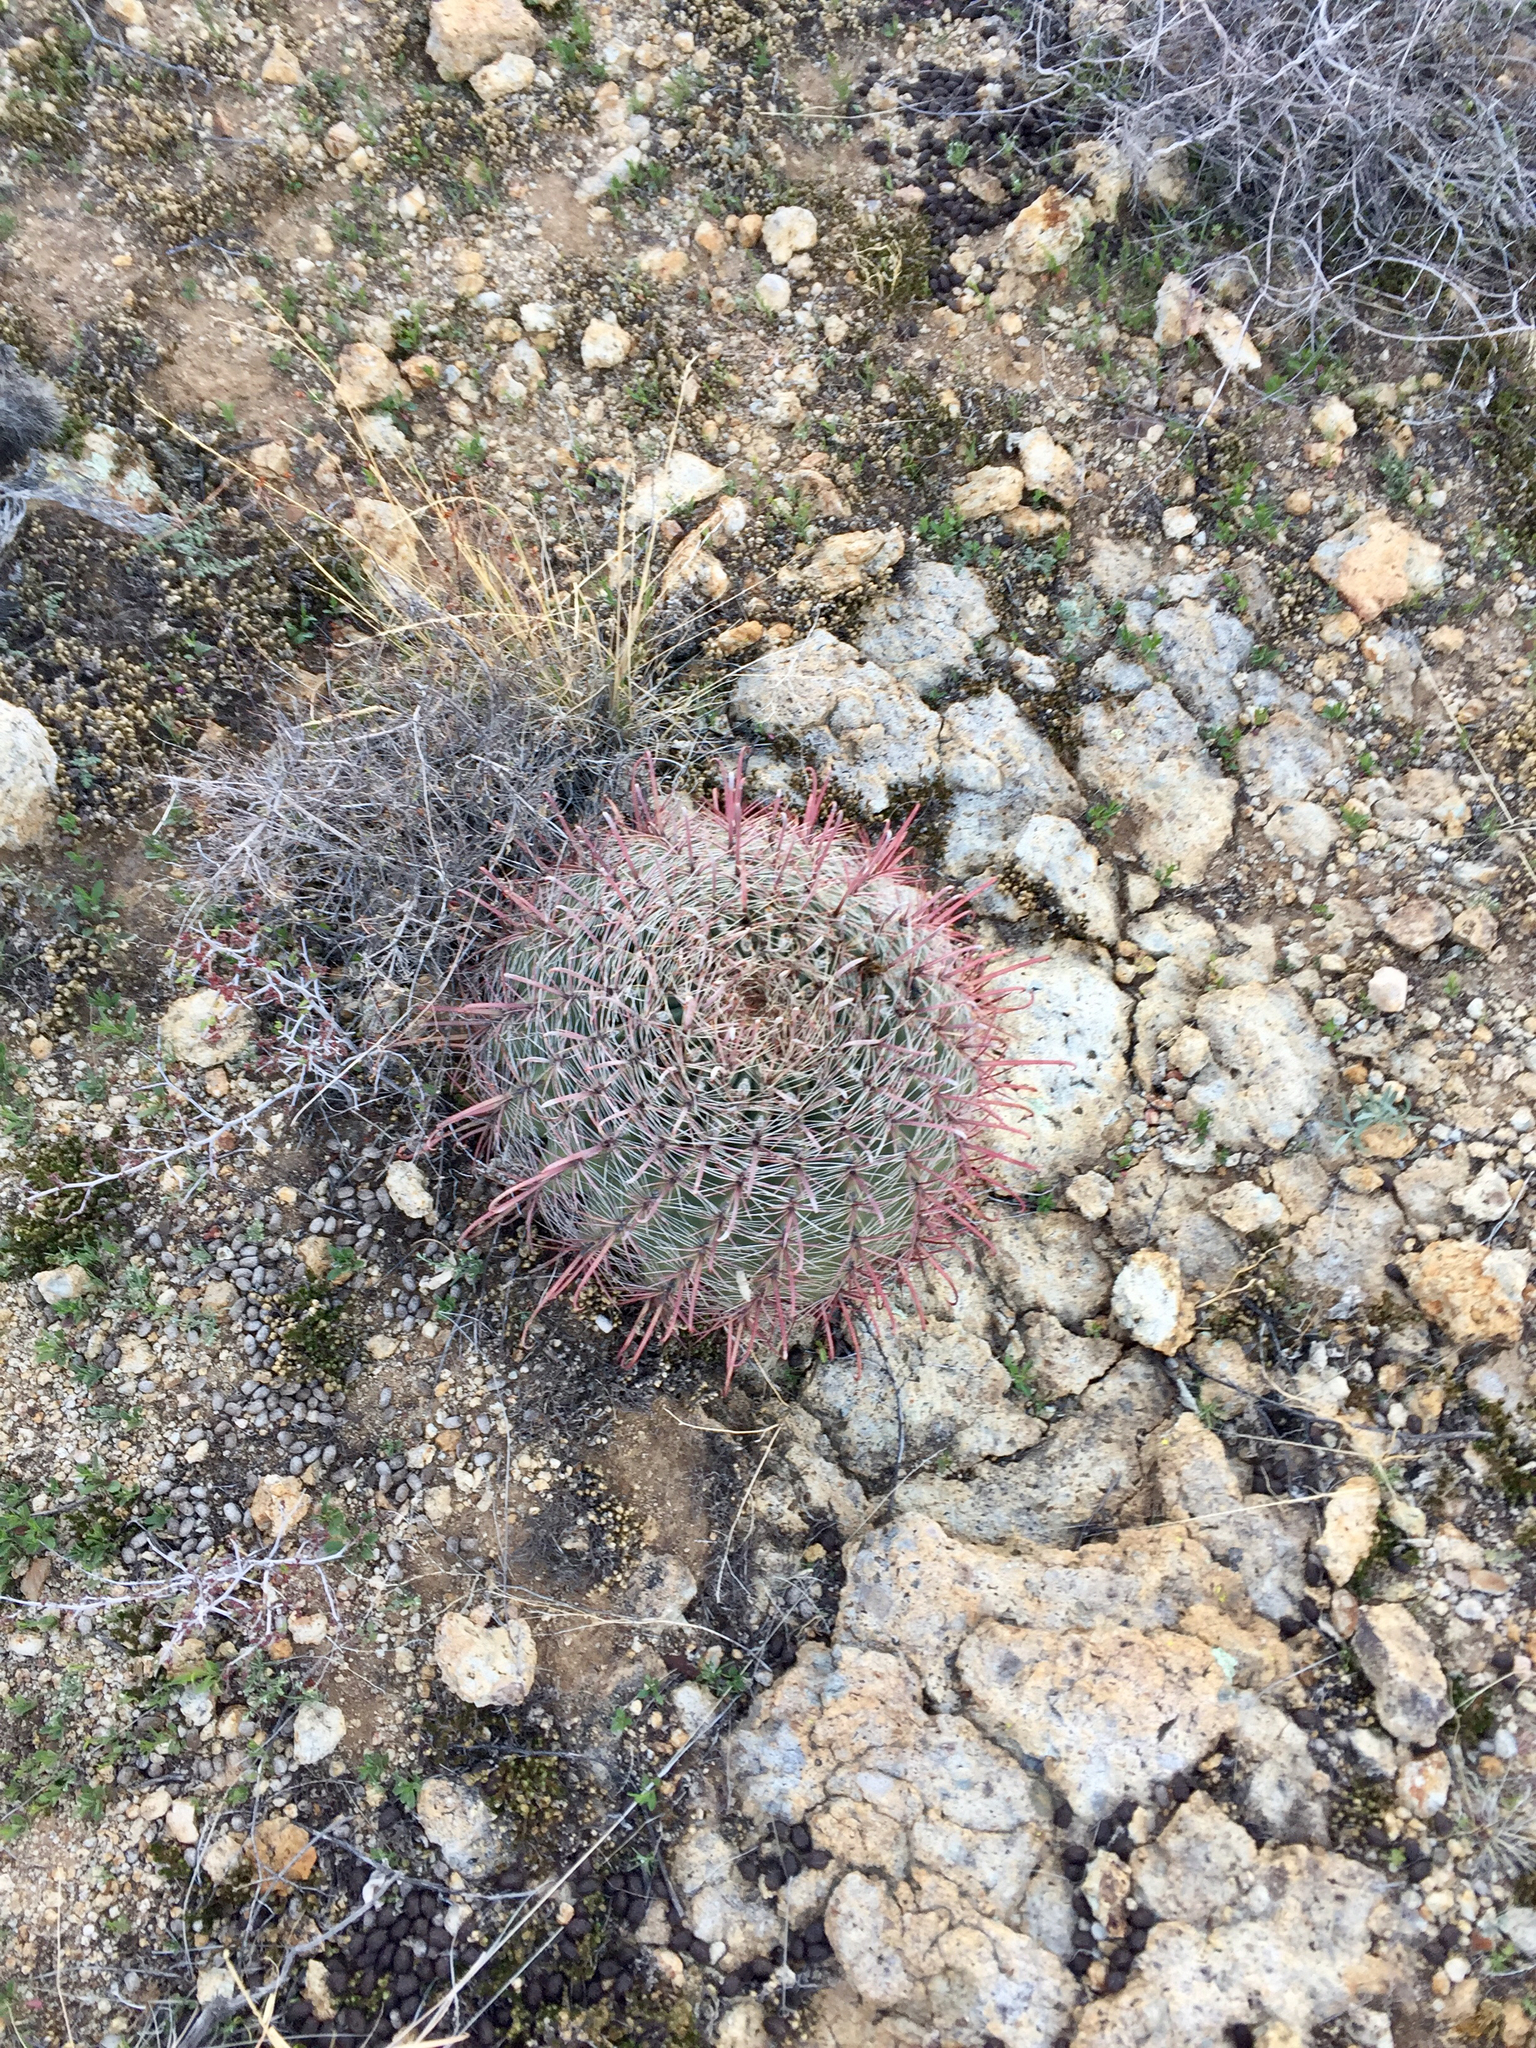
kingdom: Plantae
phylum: Tracheophyta
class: Magnoliopsida
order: Caryophyllales
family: Cactaceae
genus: Ferocactus
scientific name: Ferocactus wislizeni
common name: Candy barrel cactus
